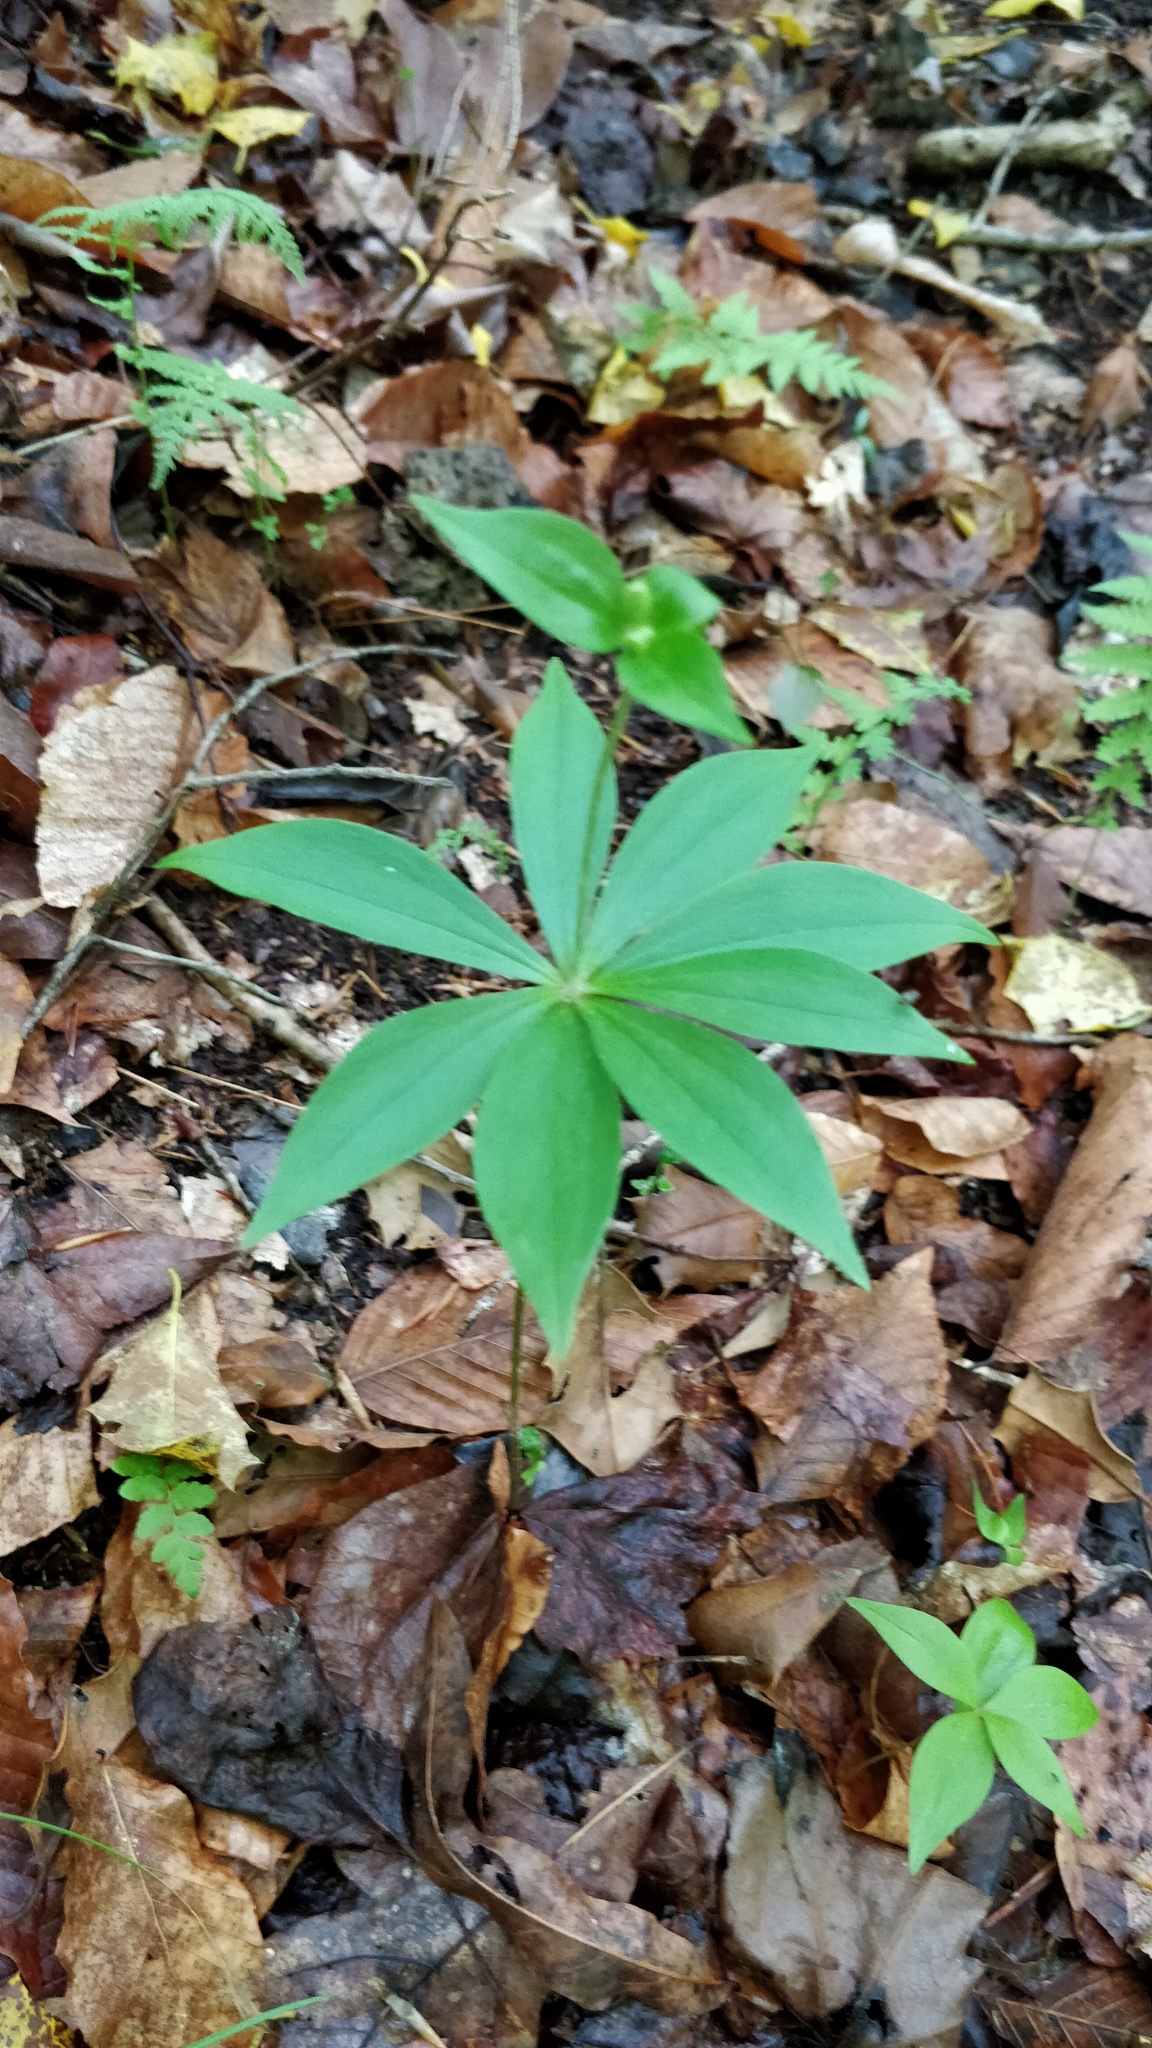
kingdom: Plantae
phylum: Tracheophyta
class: Liliopsida
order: Liliales
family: Liliaceae
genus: Medeola
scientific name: Medeola virginiana
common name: Indian cucumber-root
